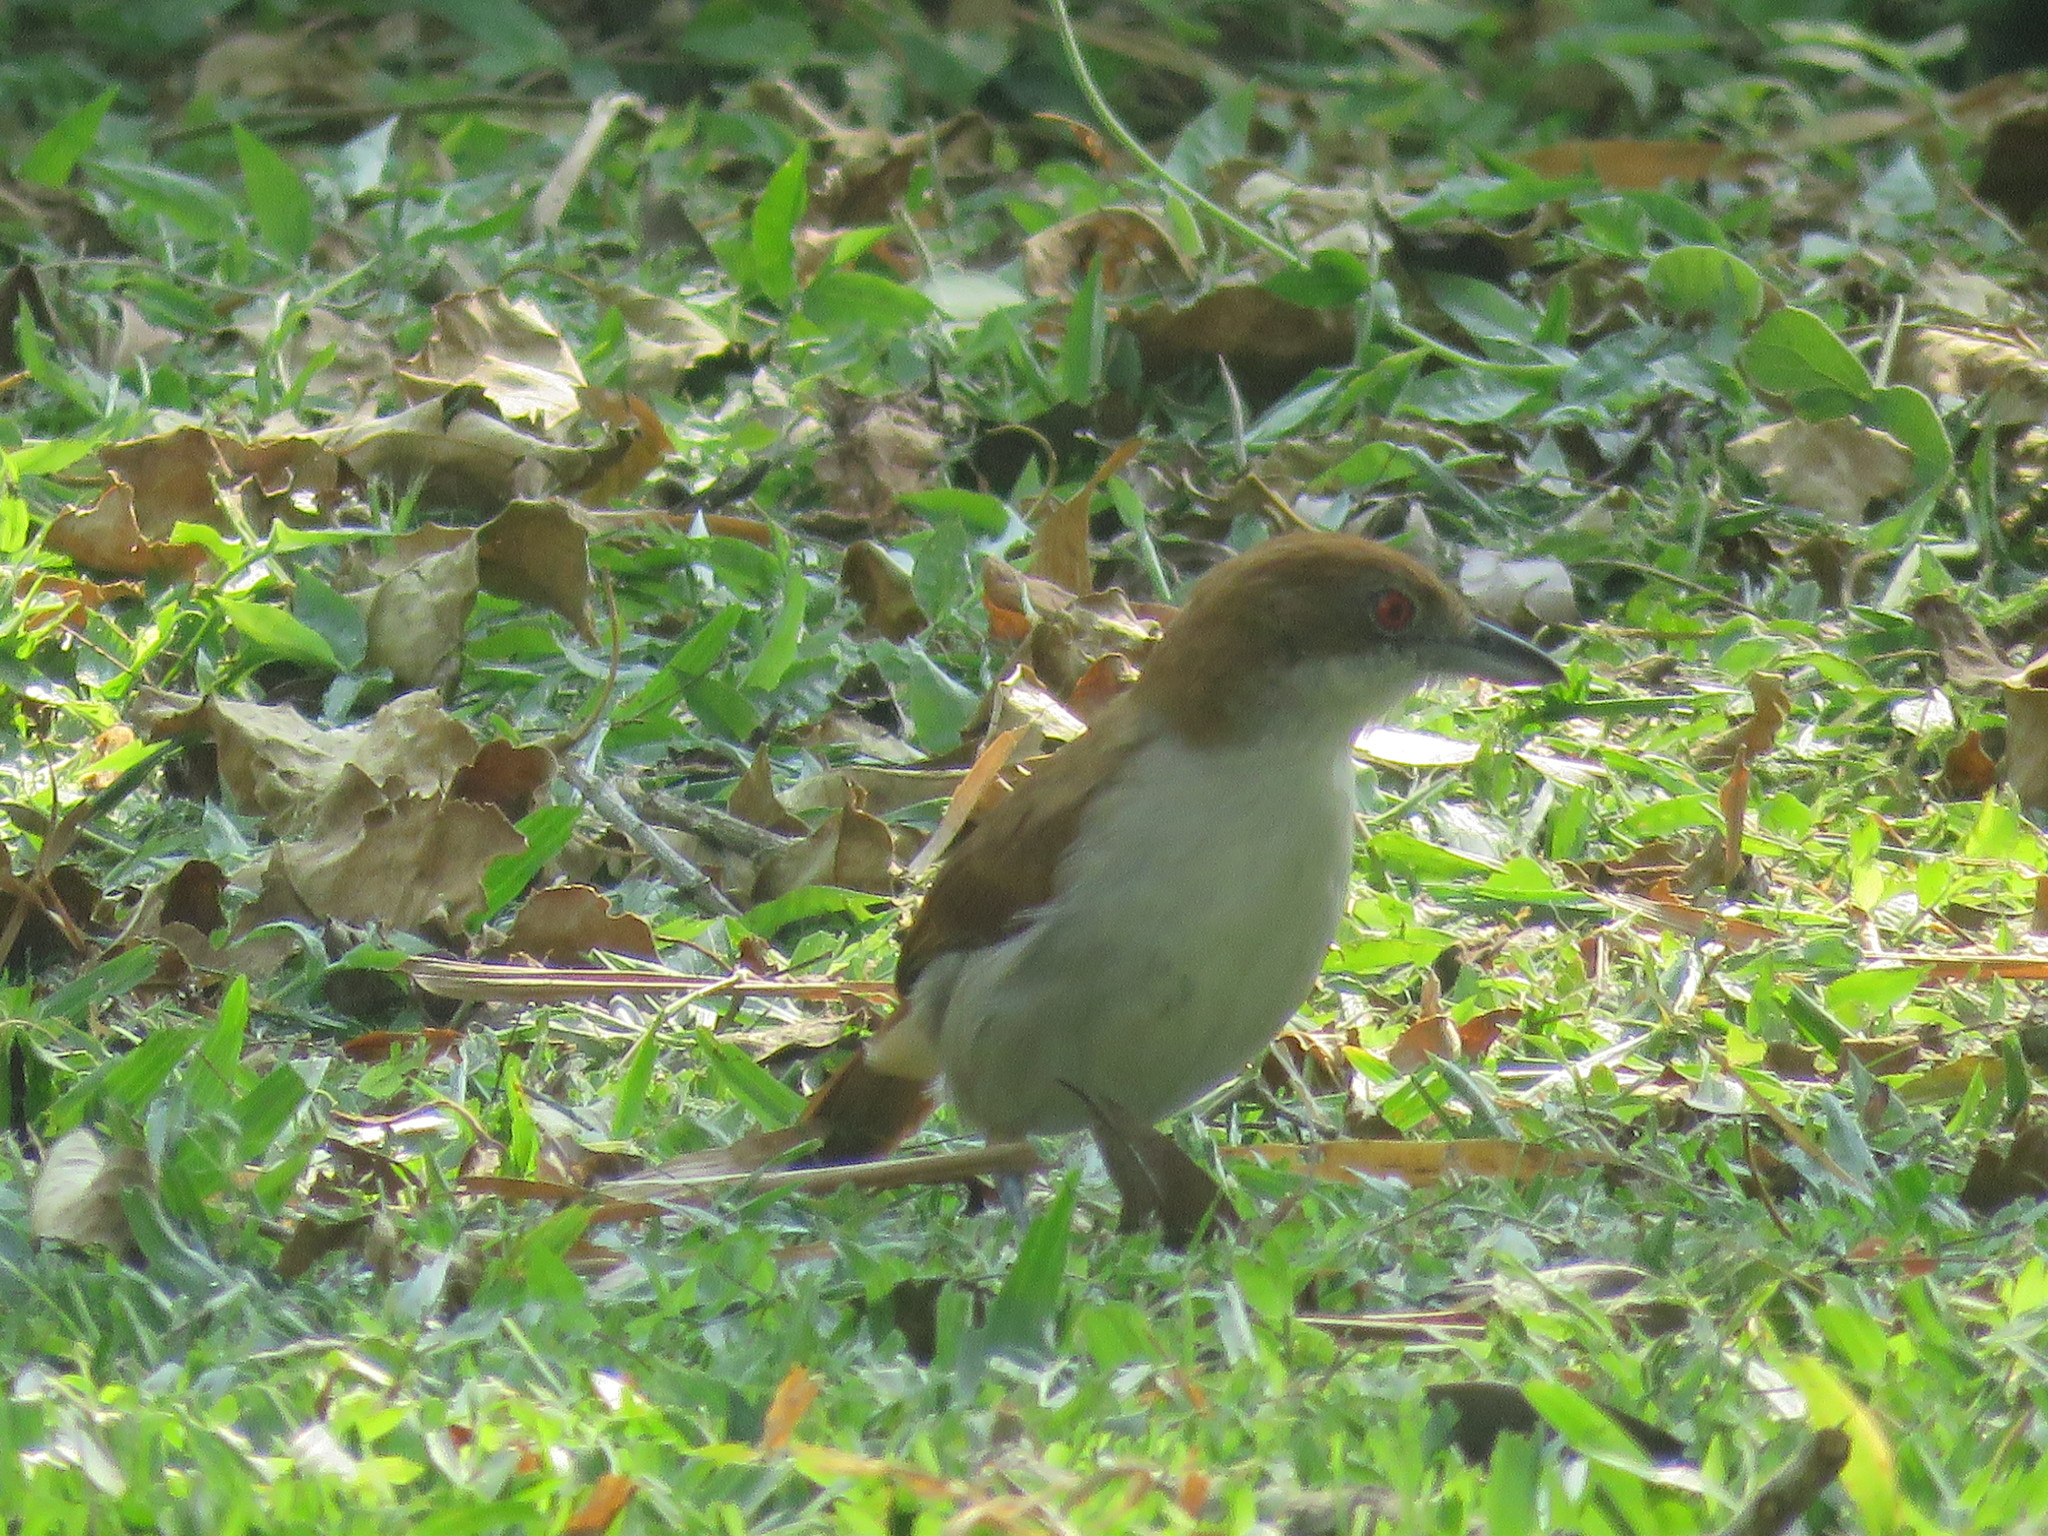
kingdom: Animalia
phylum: Chordata
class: Aves
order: Passeriformes
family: Thamnophilidae
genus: Taraba
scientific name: Taraba major
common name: Great antshrike
